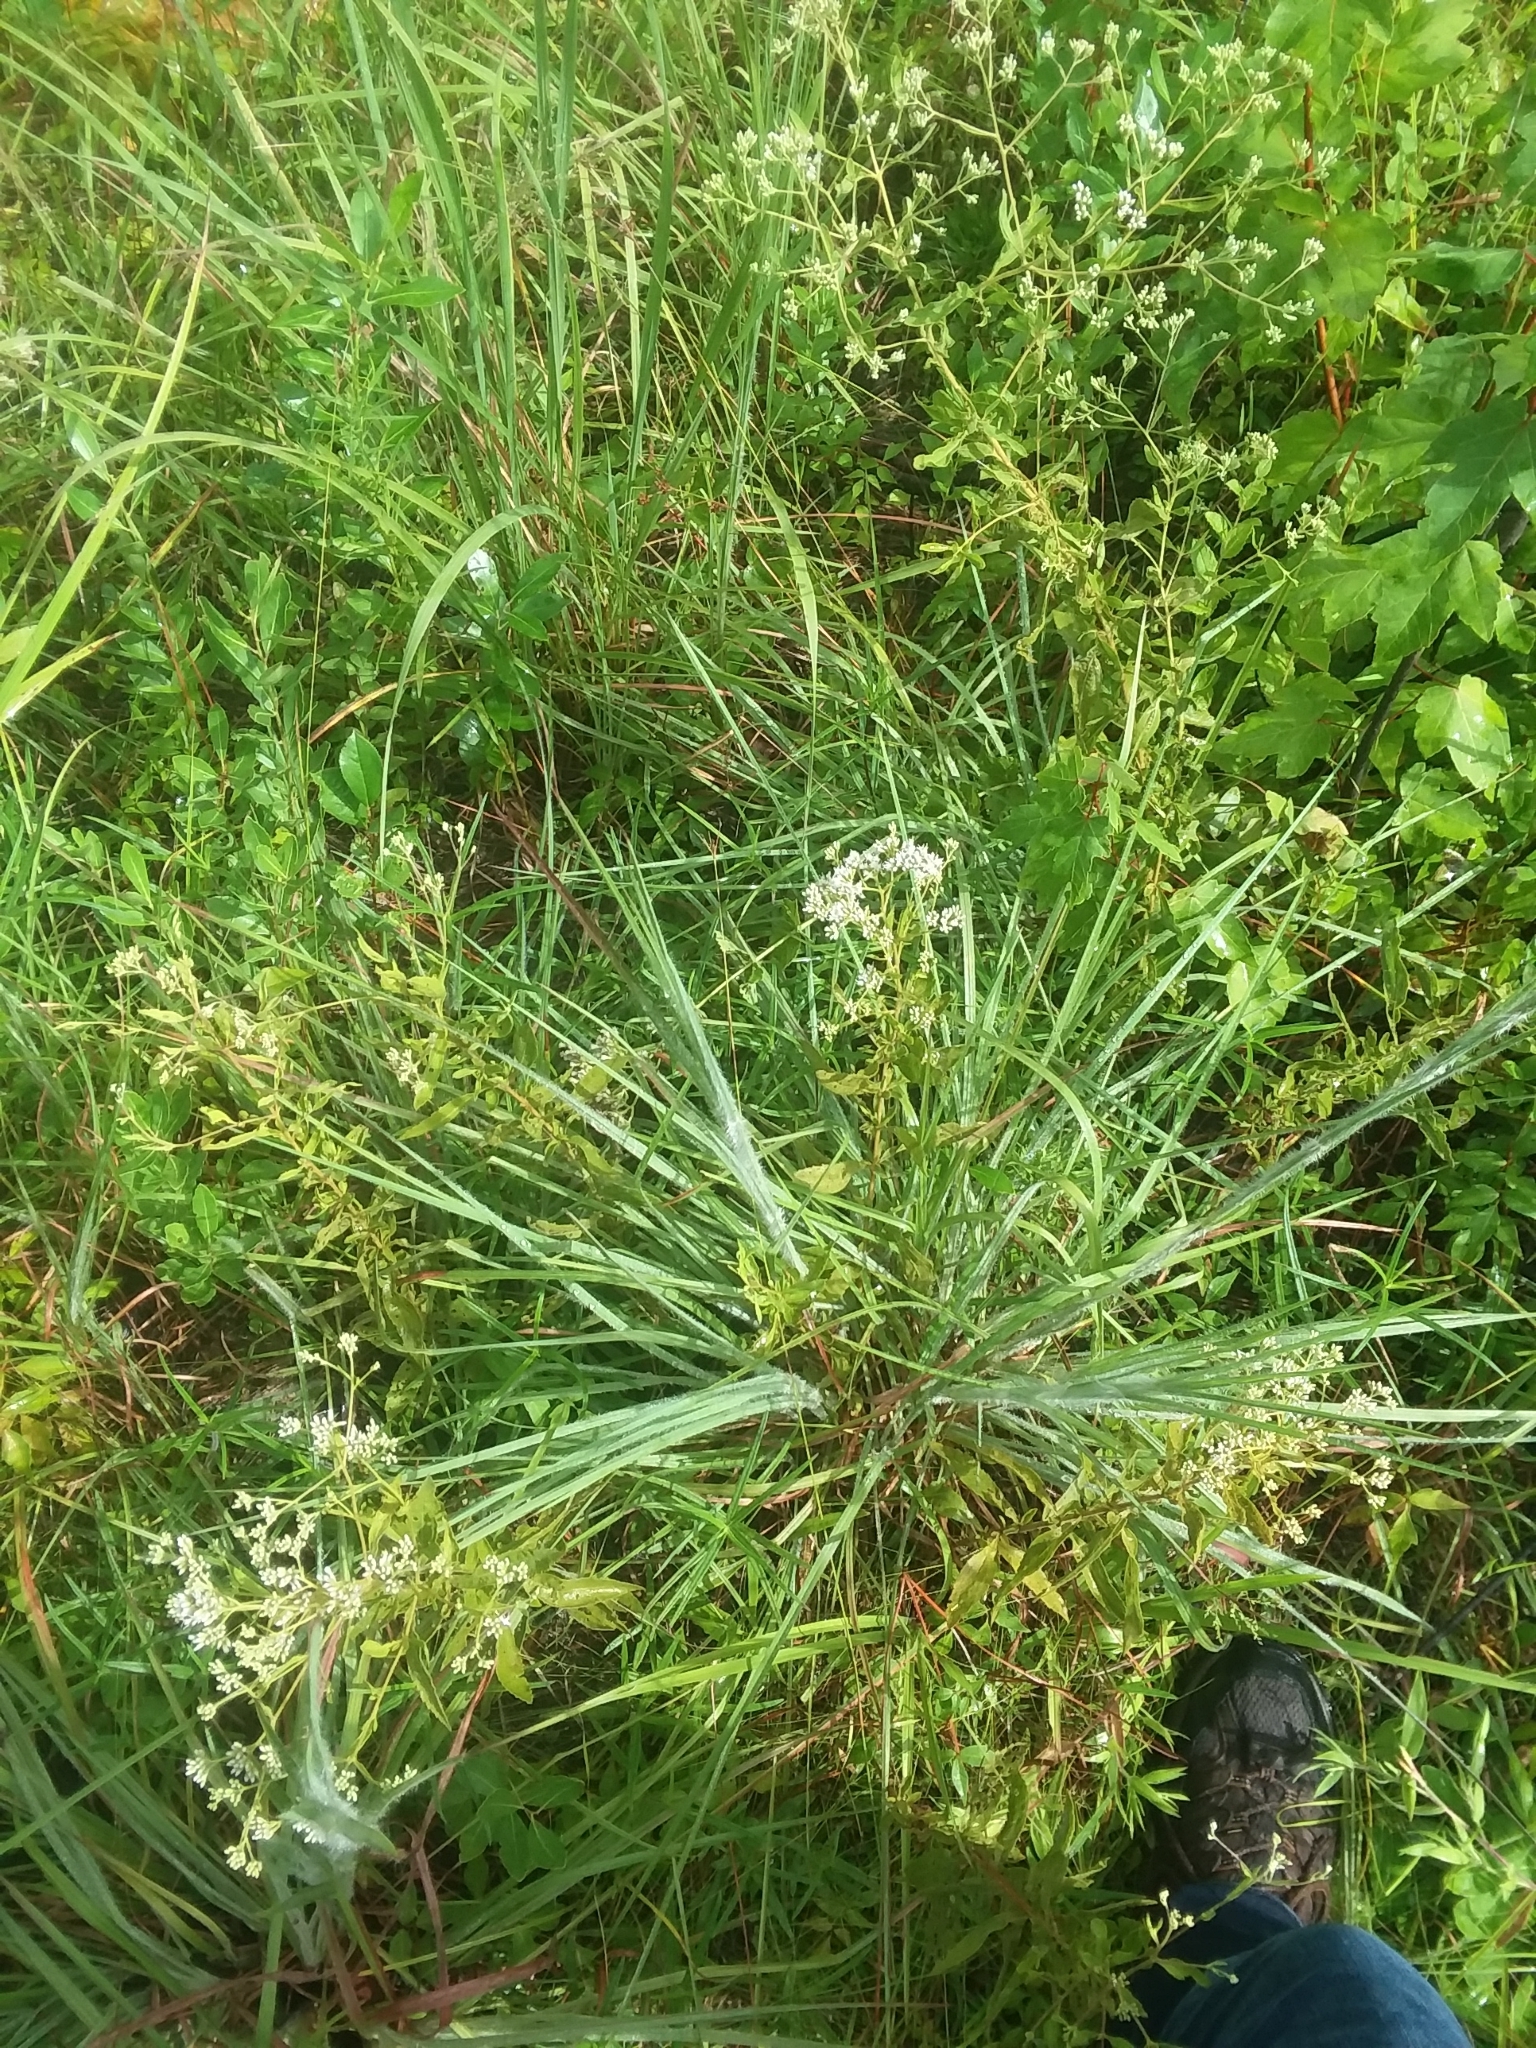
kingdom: Plantae
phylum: Tracheophyta
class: Magnoliopsida
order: Asterales
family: Asteraceae
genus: Eupatorium
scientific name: Eupatorium semiserratum
